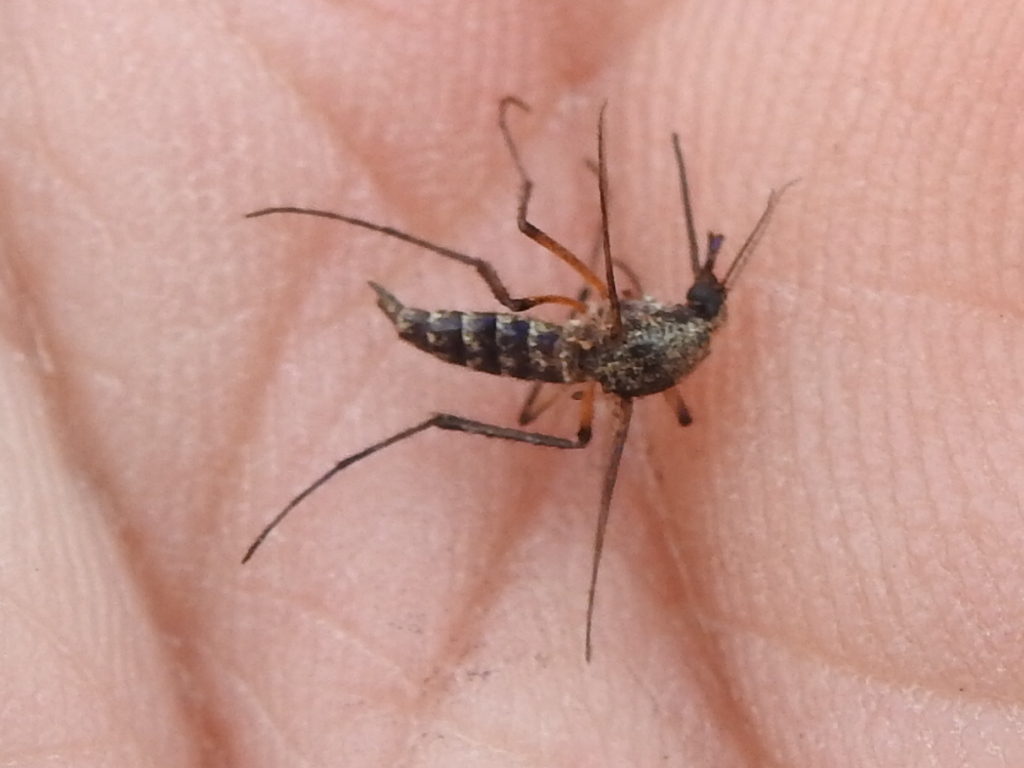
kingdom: Animalia
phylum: Arthropoda
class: Insecta
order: Diptera
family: Culicidae
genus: Psorophora
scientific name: Psorophora cyanescens
